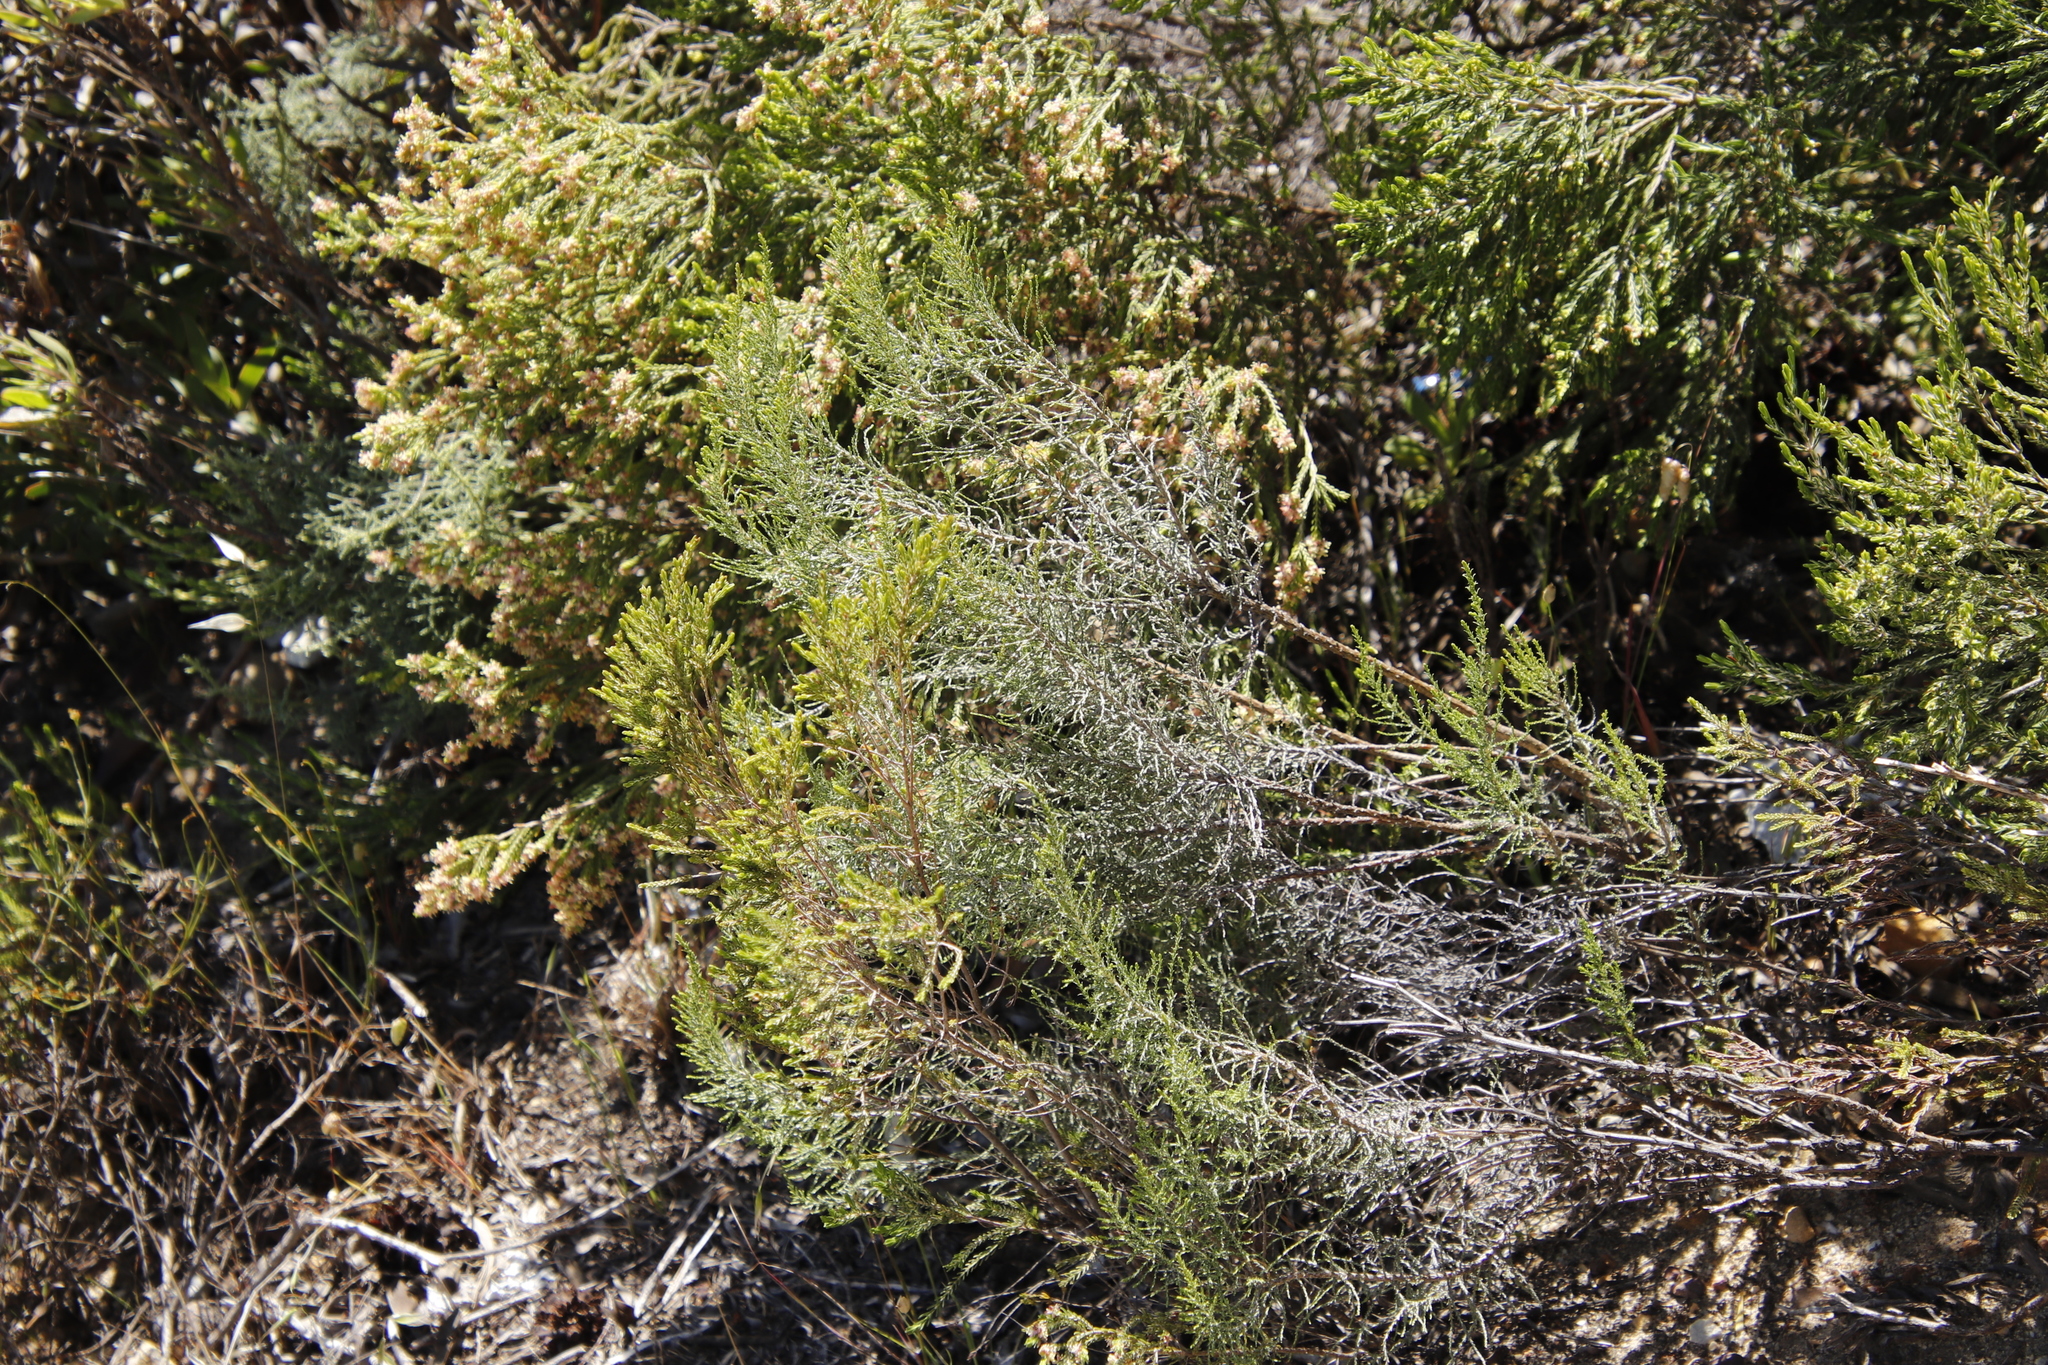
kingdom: Plantae
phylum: Tracheophyta
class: Magnoliopsida
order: Asterales
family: Asteraceae
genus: Dicerothamnus
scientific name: Dicerothamnus rhinocerotis
